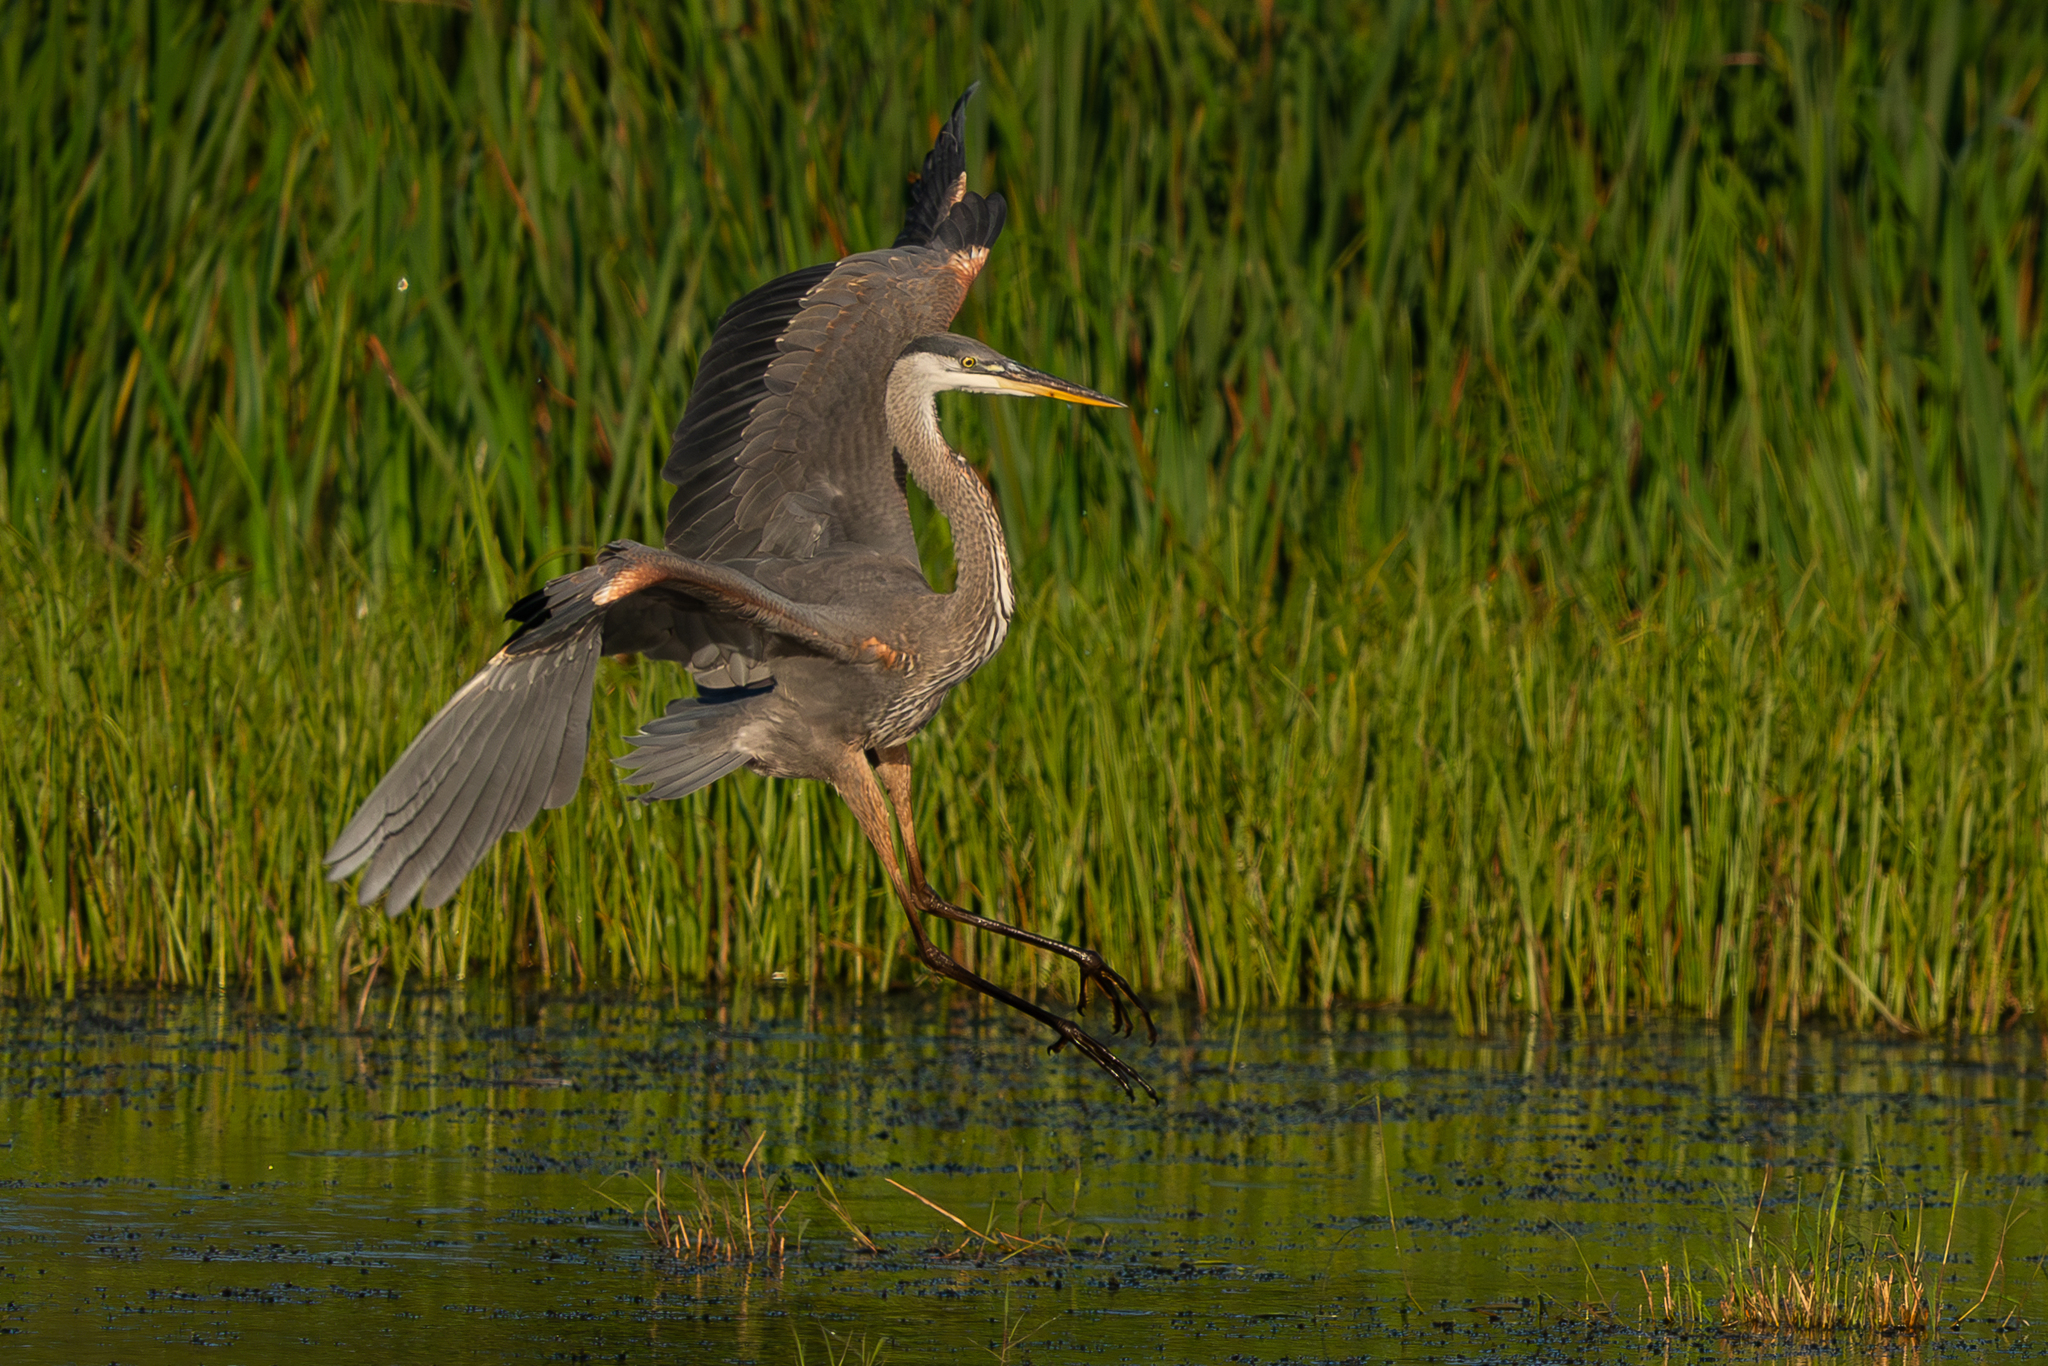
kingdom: Animalia
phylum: Chordata
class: Aves
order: Pelecaniformes
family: Ardeidae
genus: Ardea
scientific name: Ardea herodias
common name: Great blue heron
